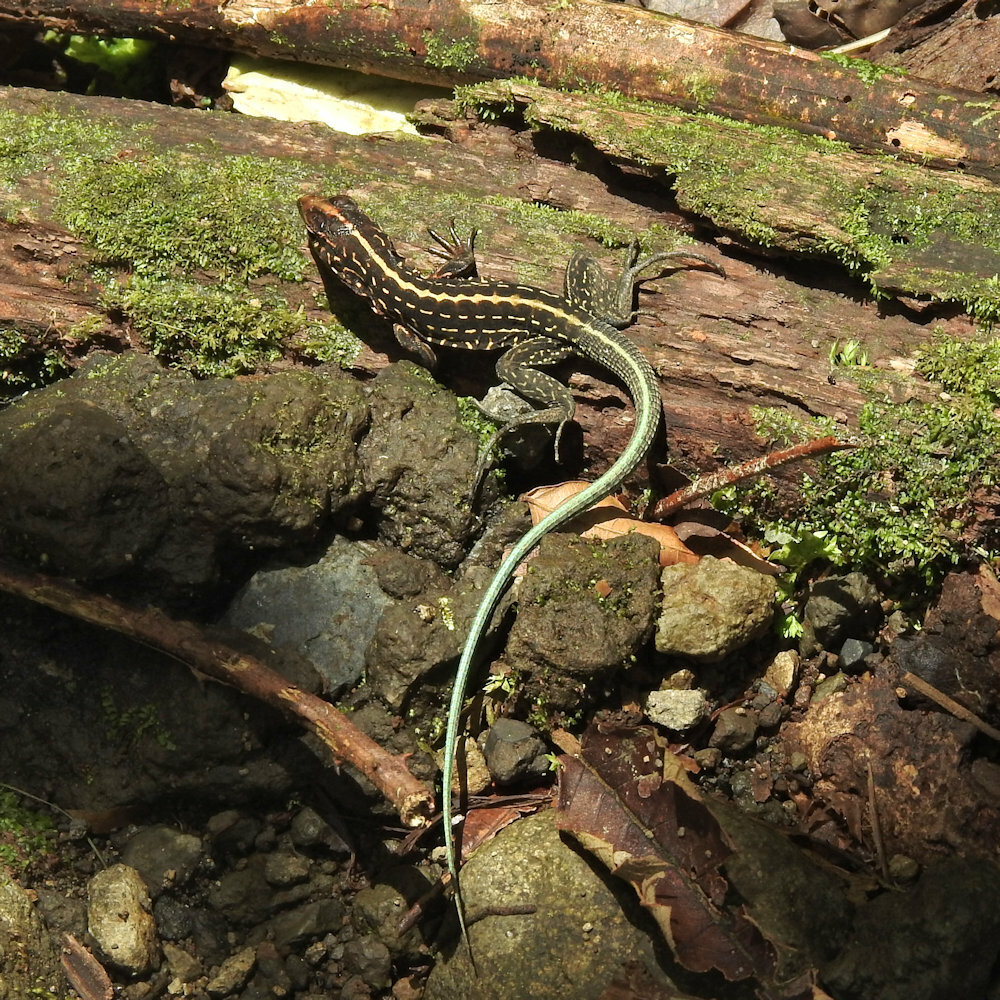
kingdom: Animalia
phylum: Chordata
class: Squamata
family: Teiidae
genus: Holcosus
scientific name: Holcosus festivus
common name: Middle american ameiva
